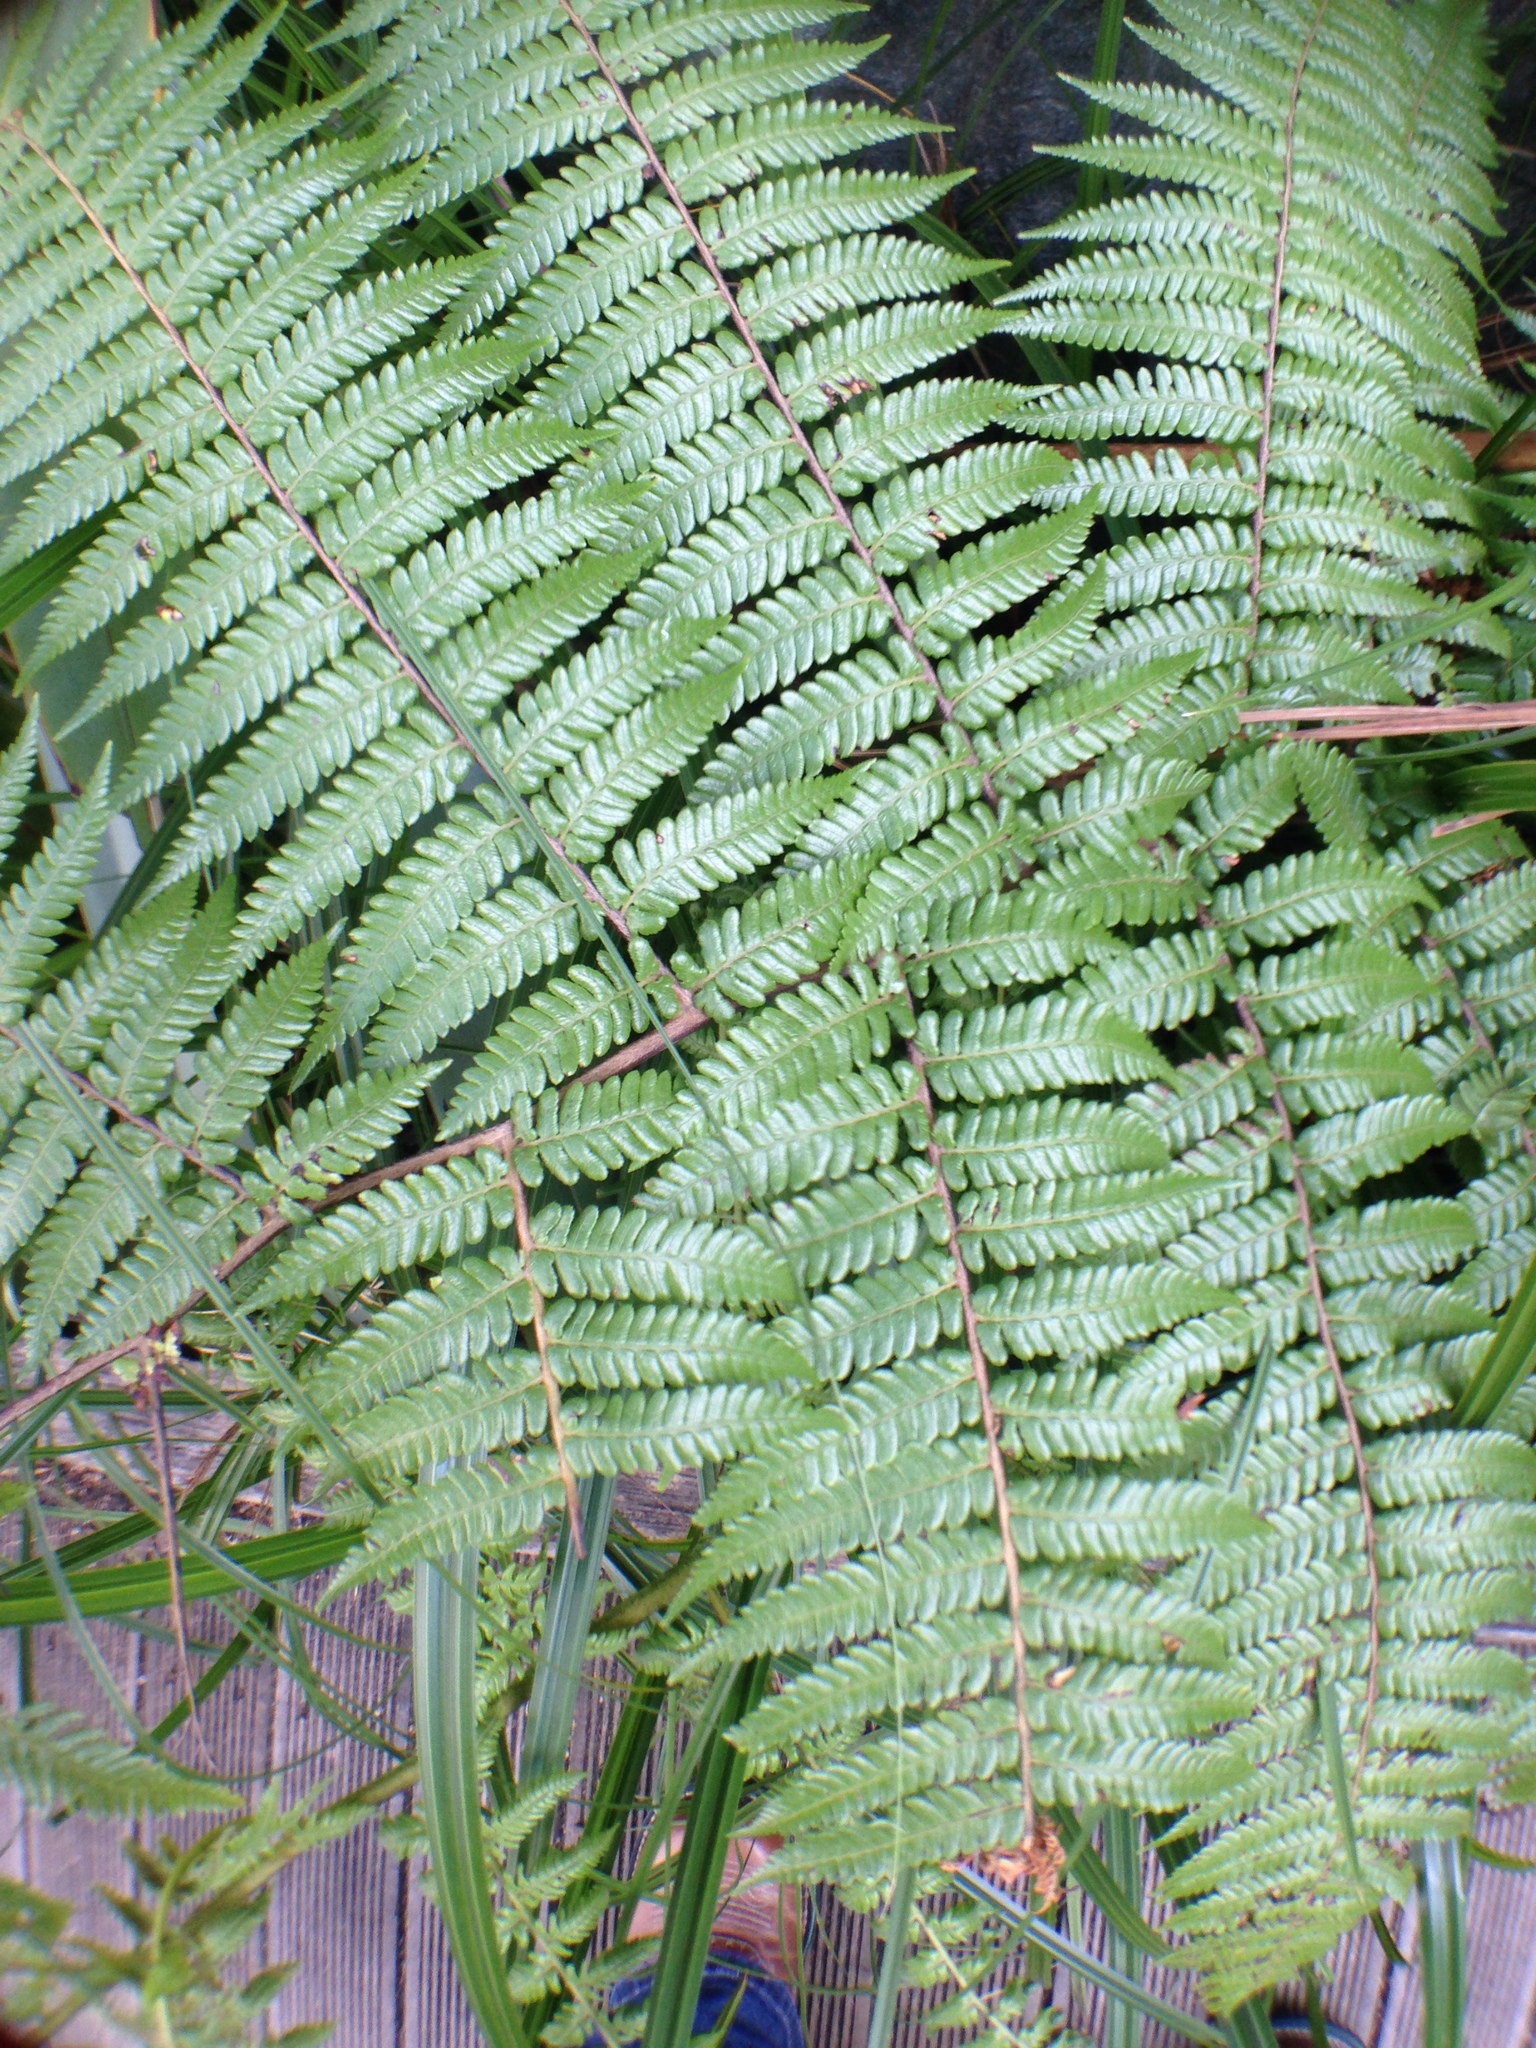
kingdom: Plantae
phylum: Tracheophyta
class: Polypodiopsida
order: Cyatheales
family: Cyatheaceae
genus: Sphaeropteris
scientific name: Sphaeropteris medullaris
